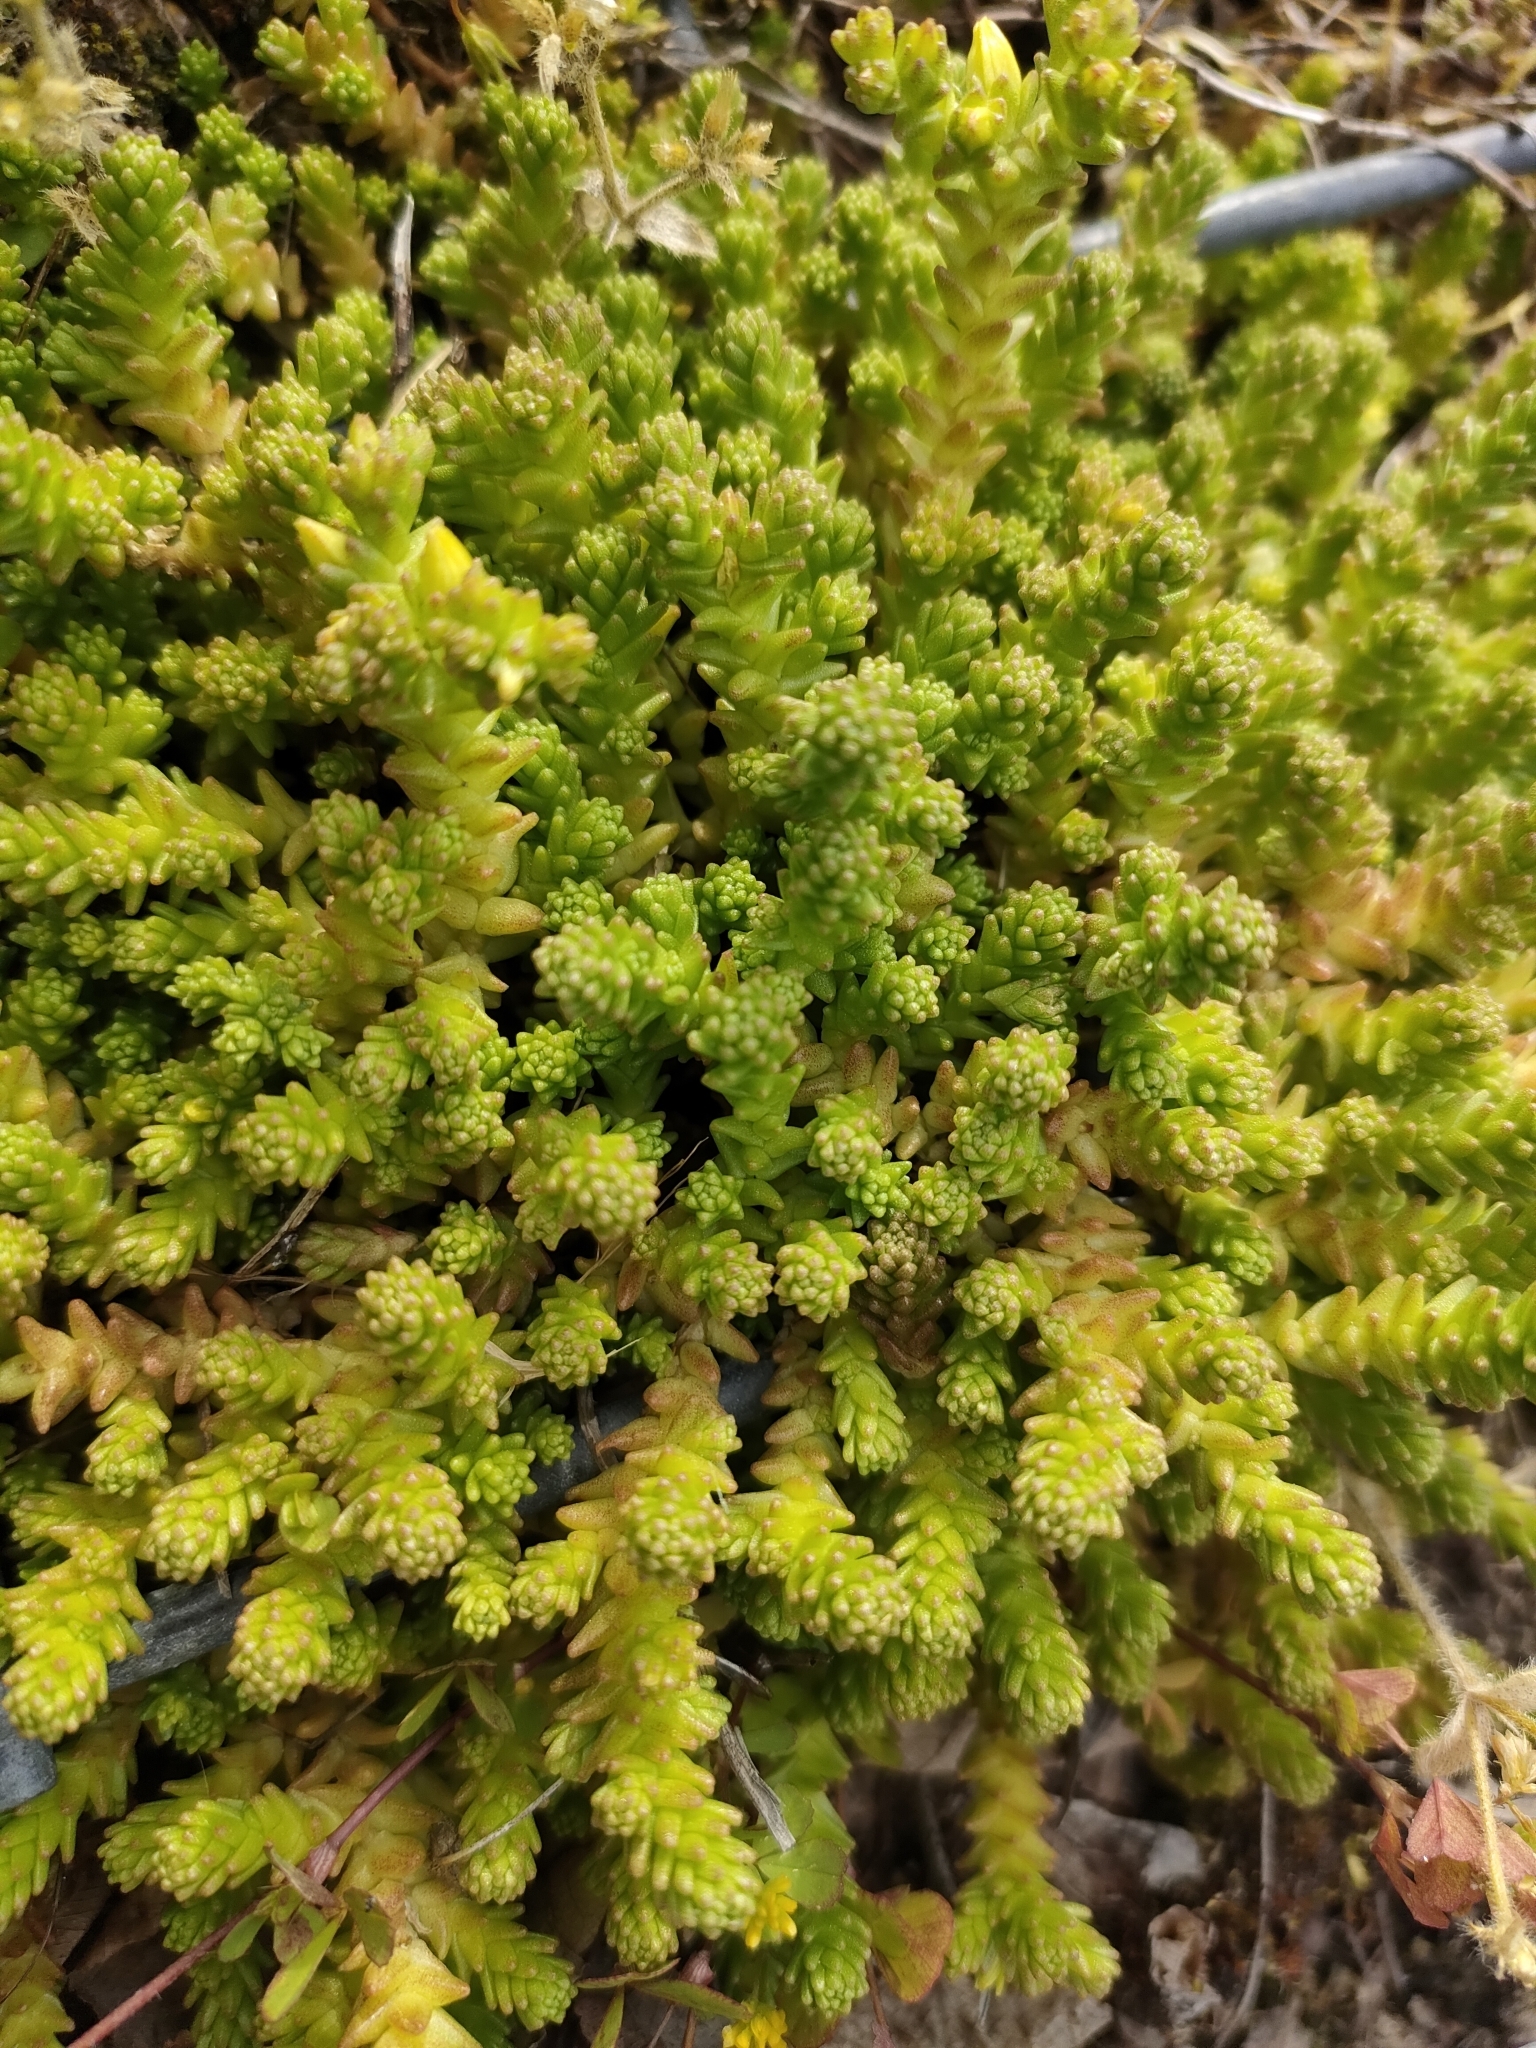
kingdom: Plantae
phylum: Tracheophyta
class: Magnoliopsida
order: Saxifragales
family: Crassulaceae
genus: Sedum
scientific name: Sedum acre
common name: Biting stonecrop
